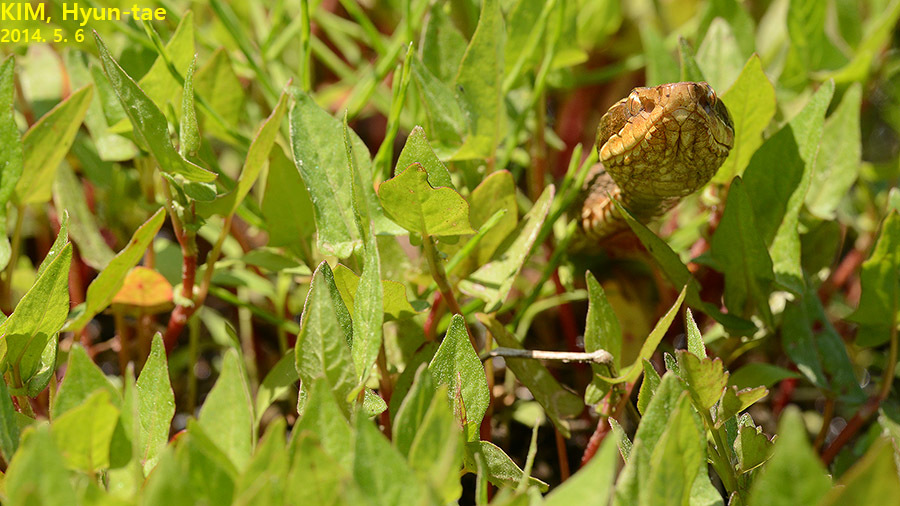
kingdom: Animalia
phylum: Chordata
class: Squamata
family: Viperidae
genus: Gloydius
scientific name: Gloydius ussuriensis
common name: Ussuri mamushi
